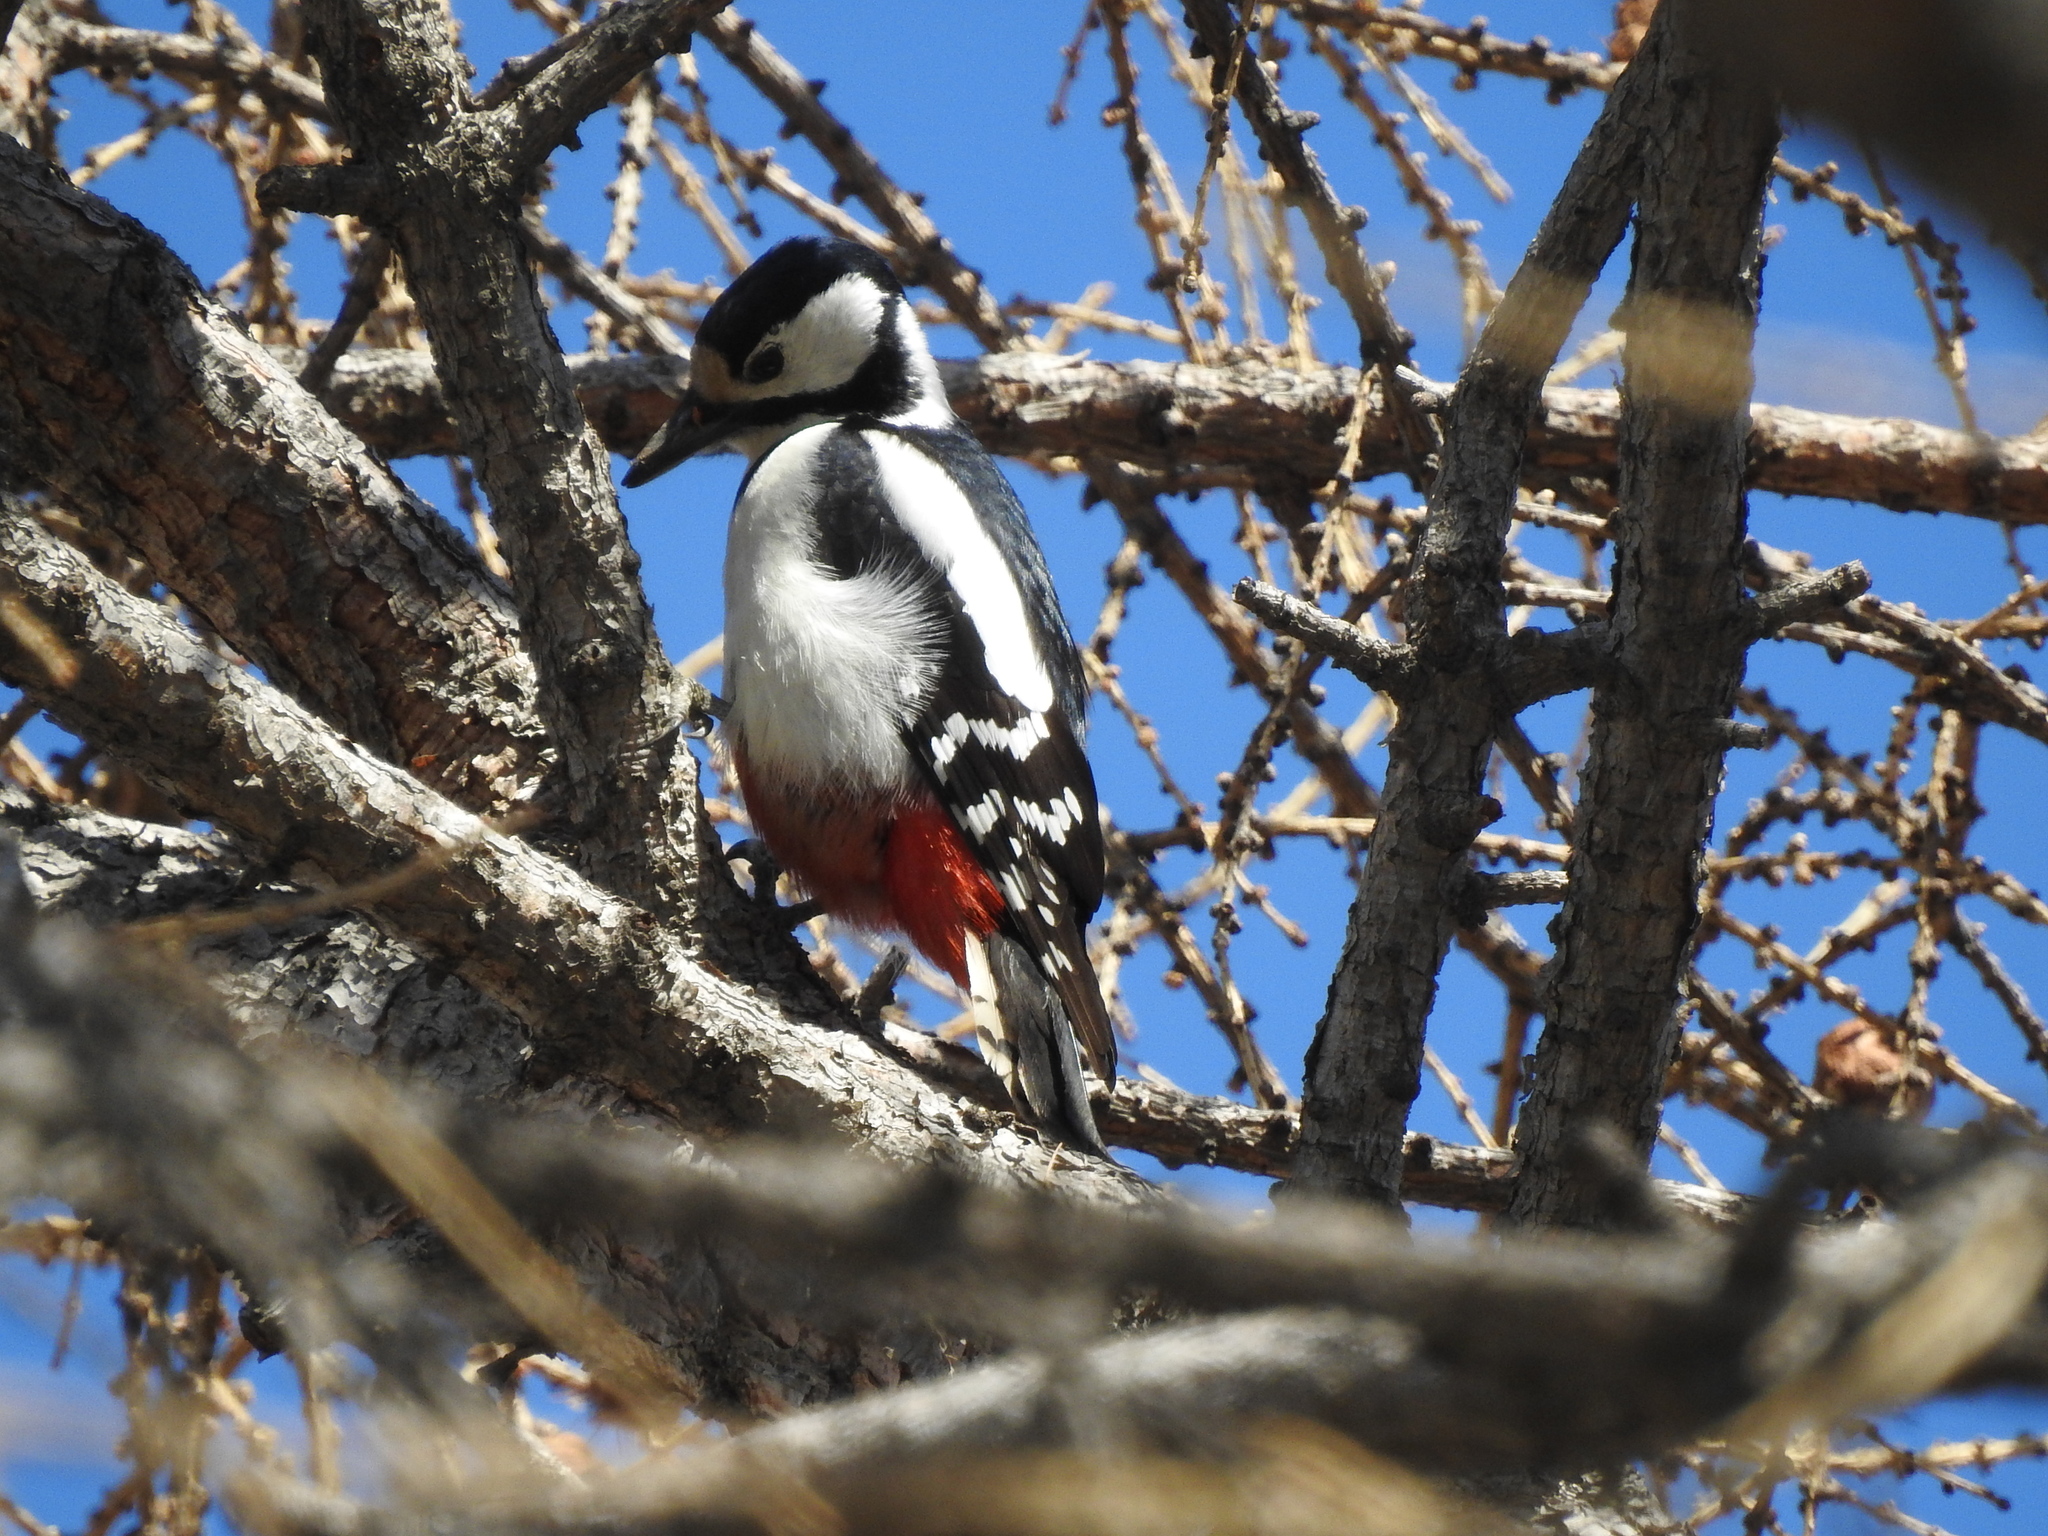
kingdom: Animalia
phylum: Chordata
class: Aves
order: Piciformes
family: Picidae
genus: Dendrocopos
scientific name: Dendrocopos major
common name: Great spotted woodpecker
